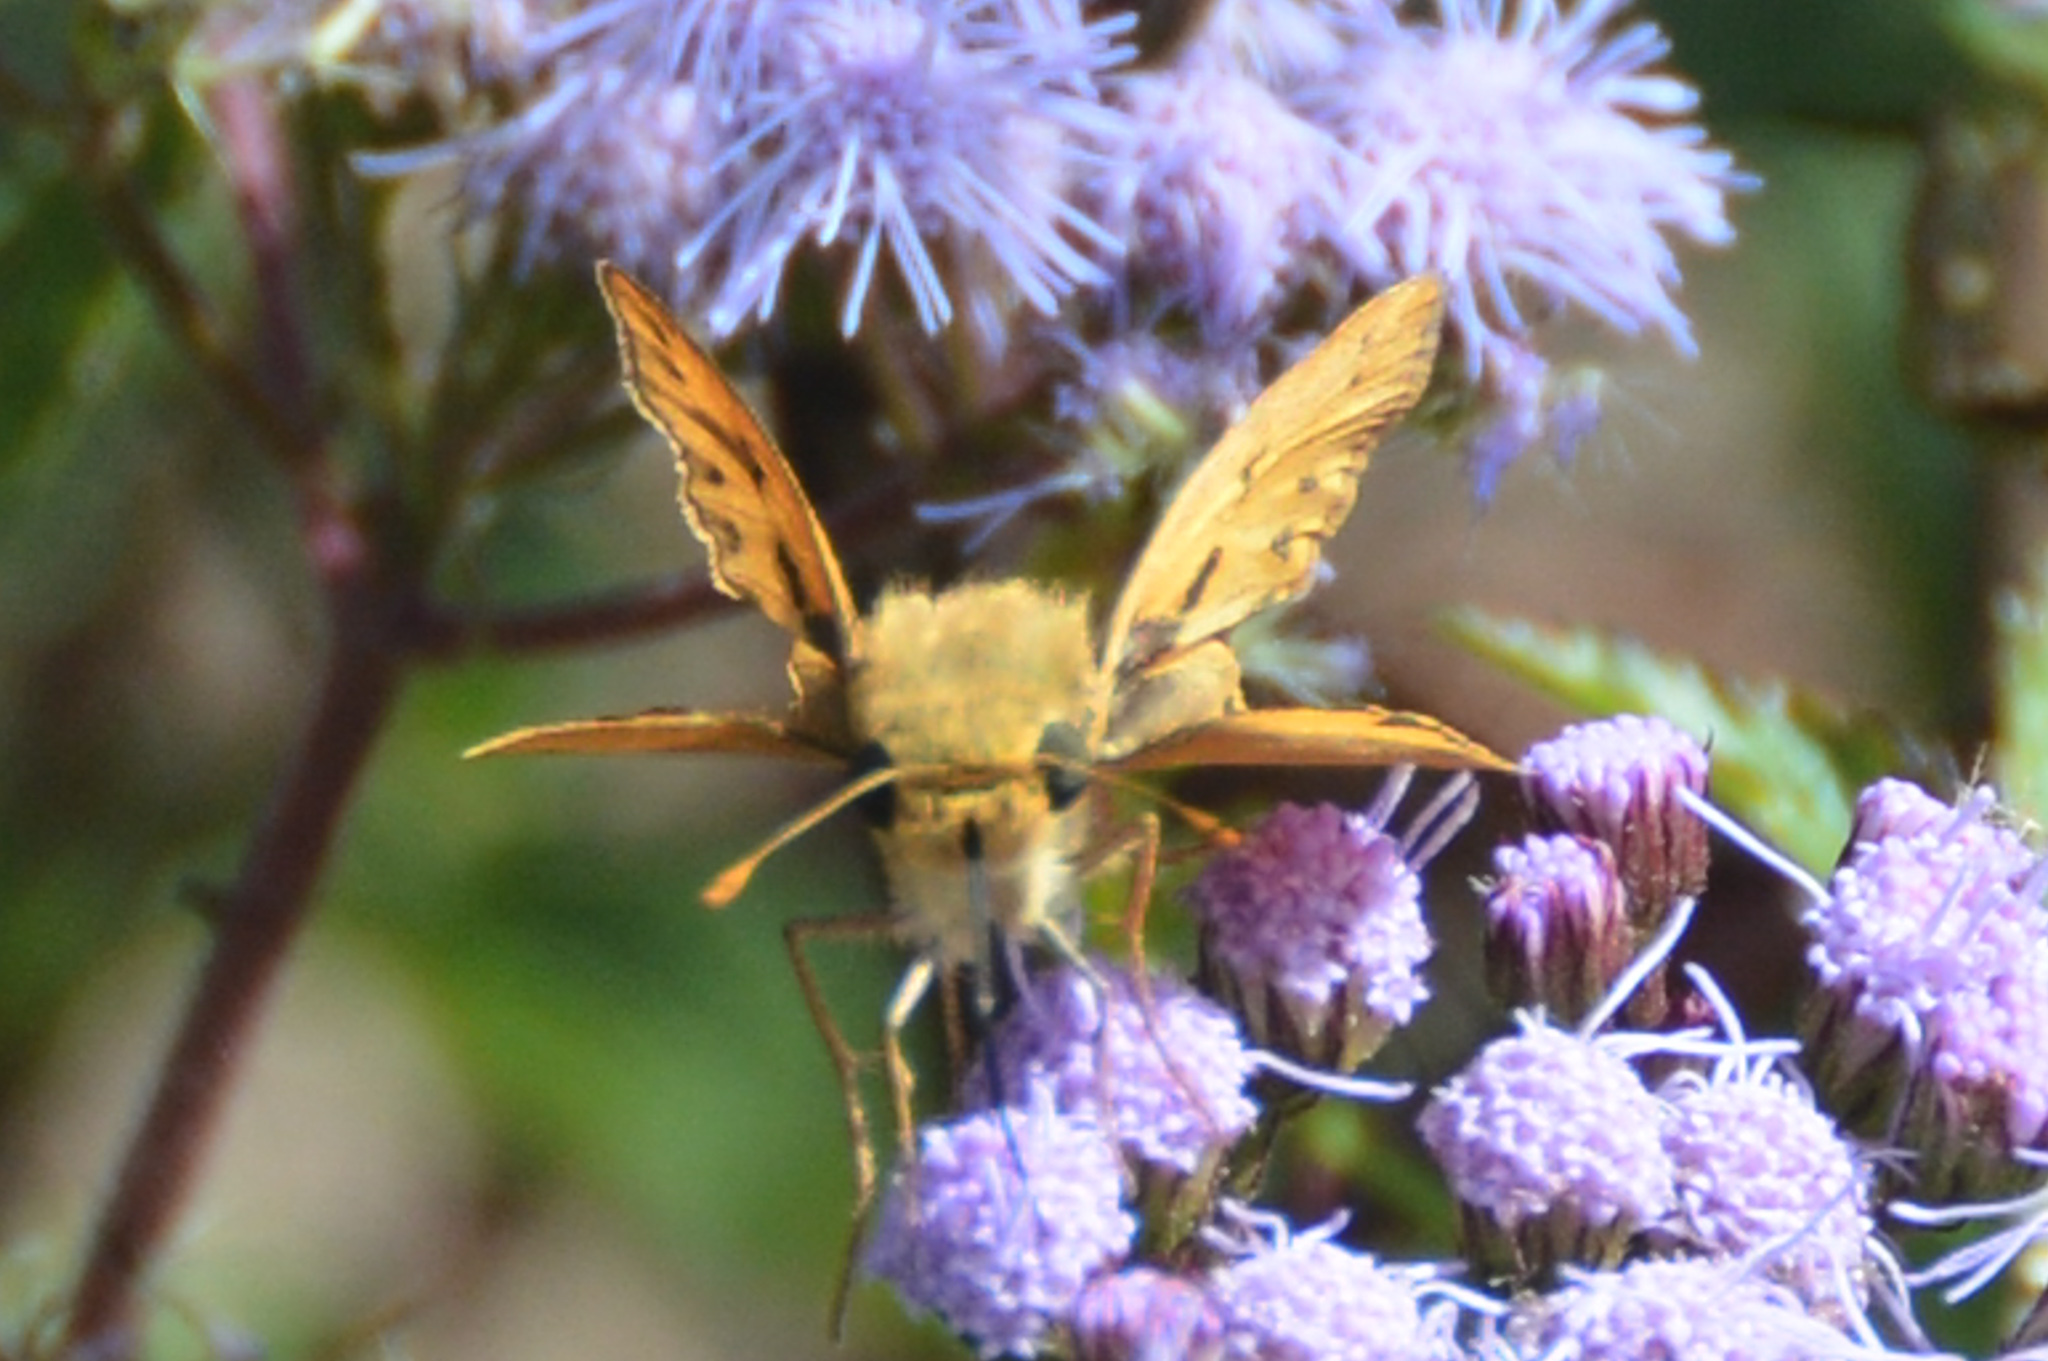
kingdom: Animalia
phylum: Arthropoda
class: Insecta
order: Lepidoptera
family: Hesperiidae
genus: Hylephila
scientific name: Hylephila phyleus
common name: Fiery skipper
